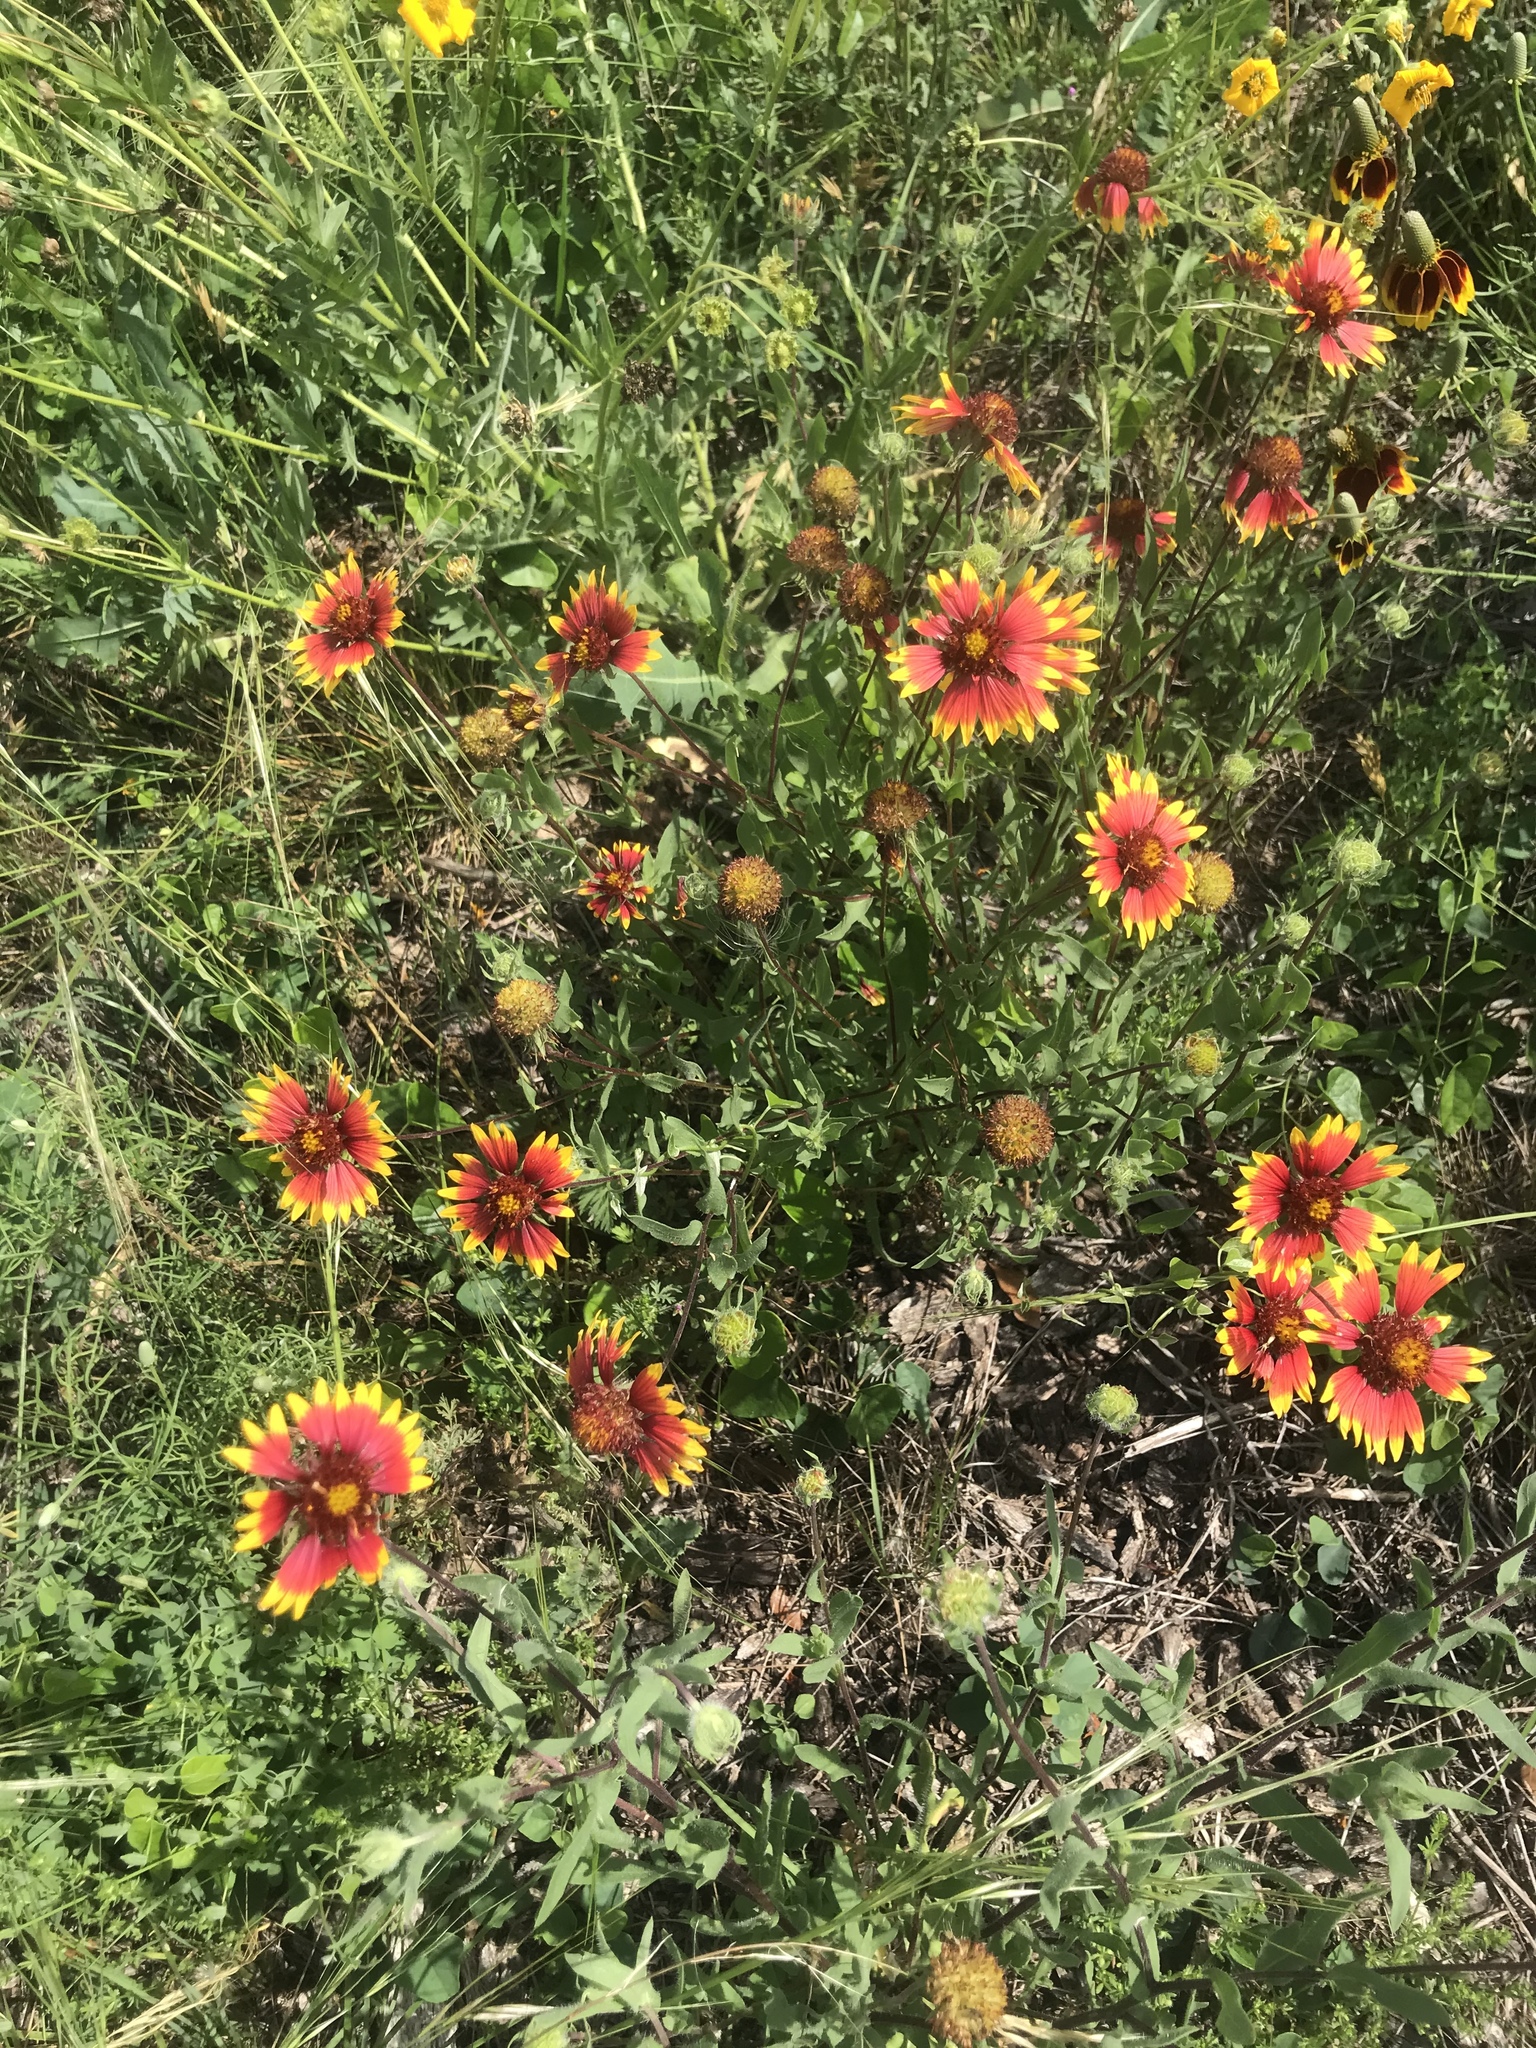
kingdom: Plantae
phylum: Tracheophyta
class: Magnoliopsida
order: Asterales
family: Asteraceae
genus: Gaillardia
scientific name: Gaillardia pulchella
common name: Firewheel
